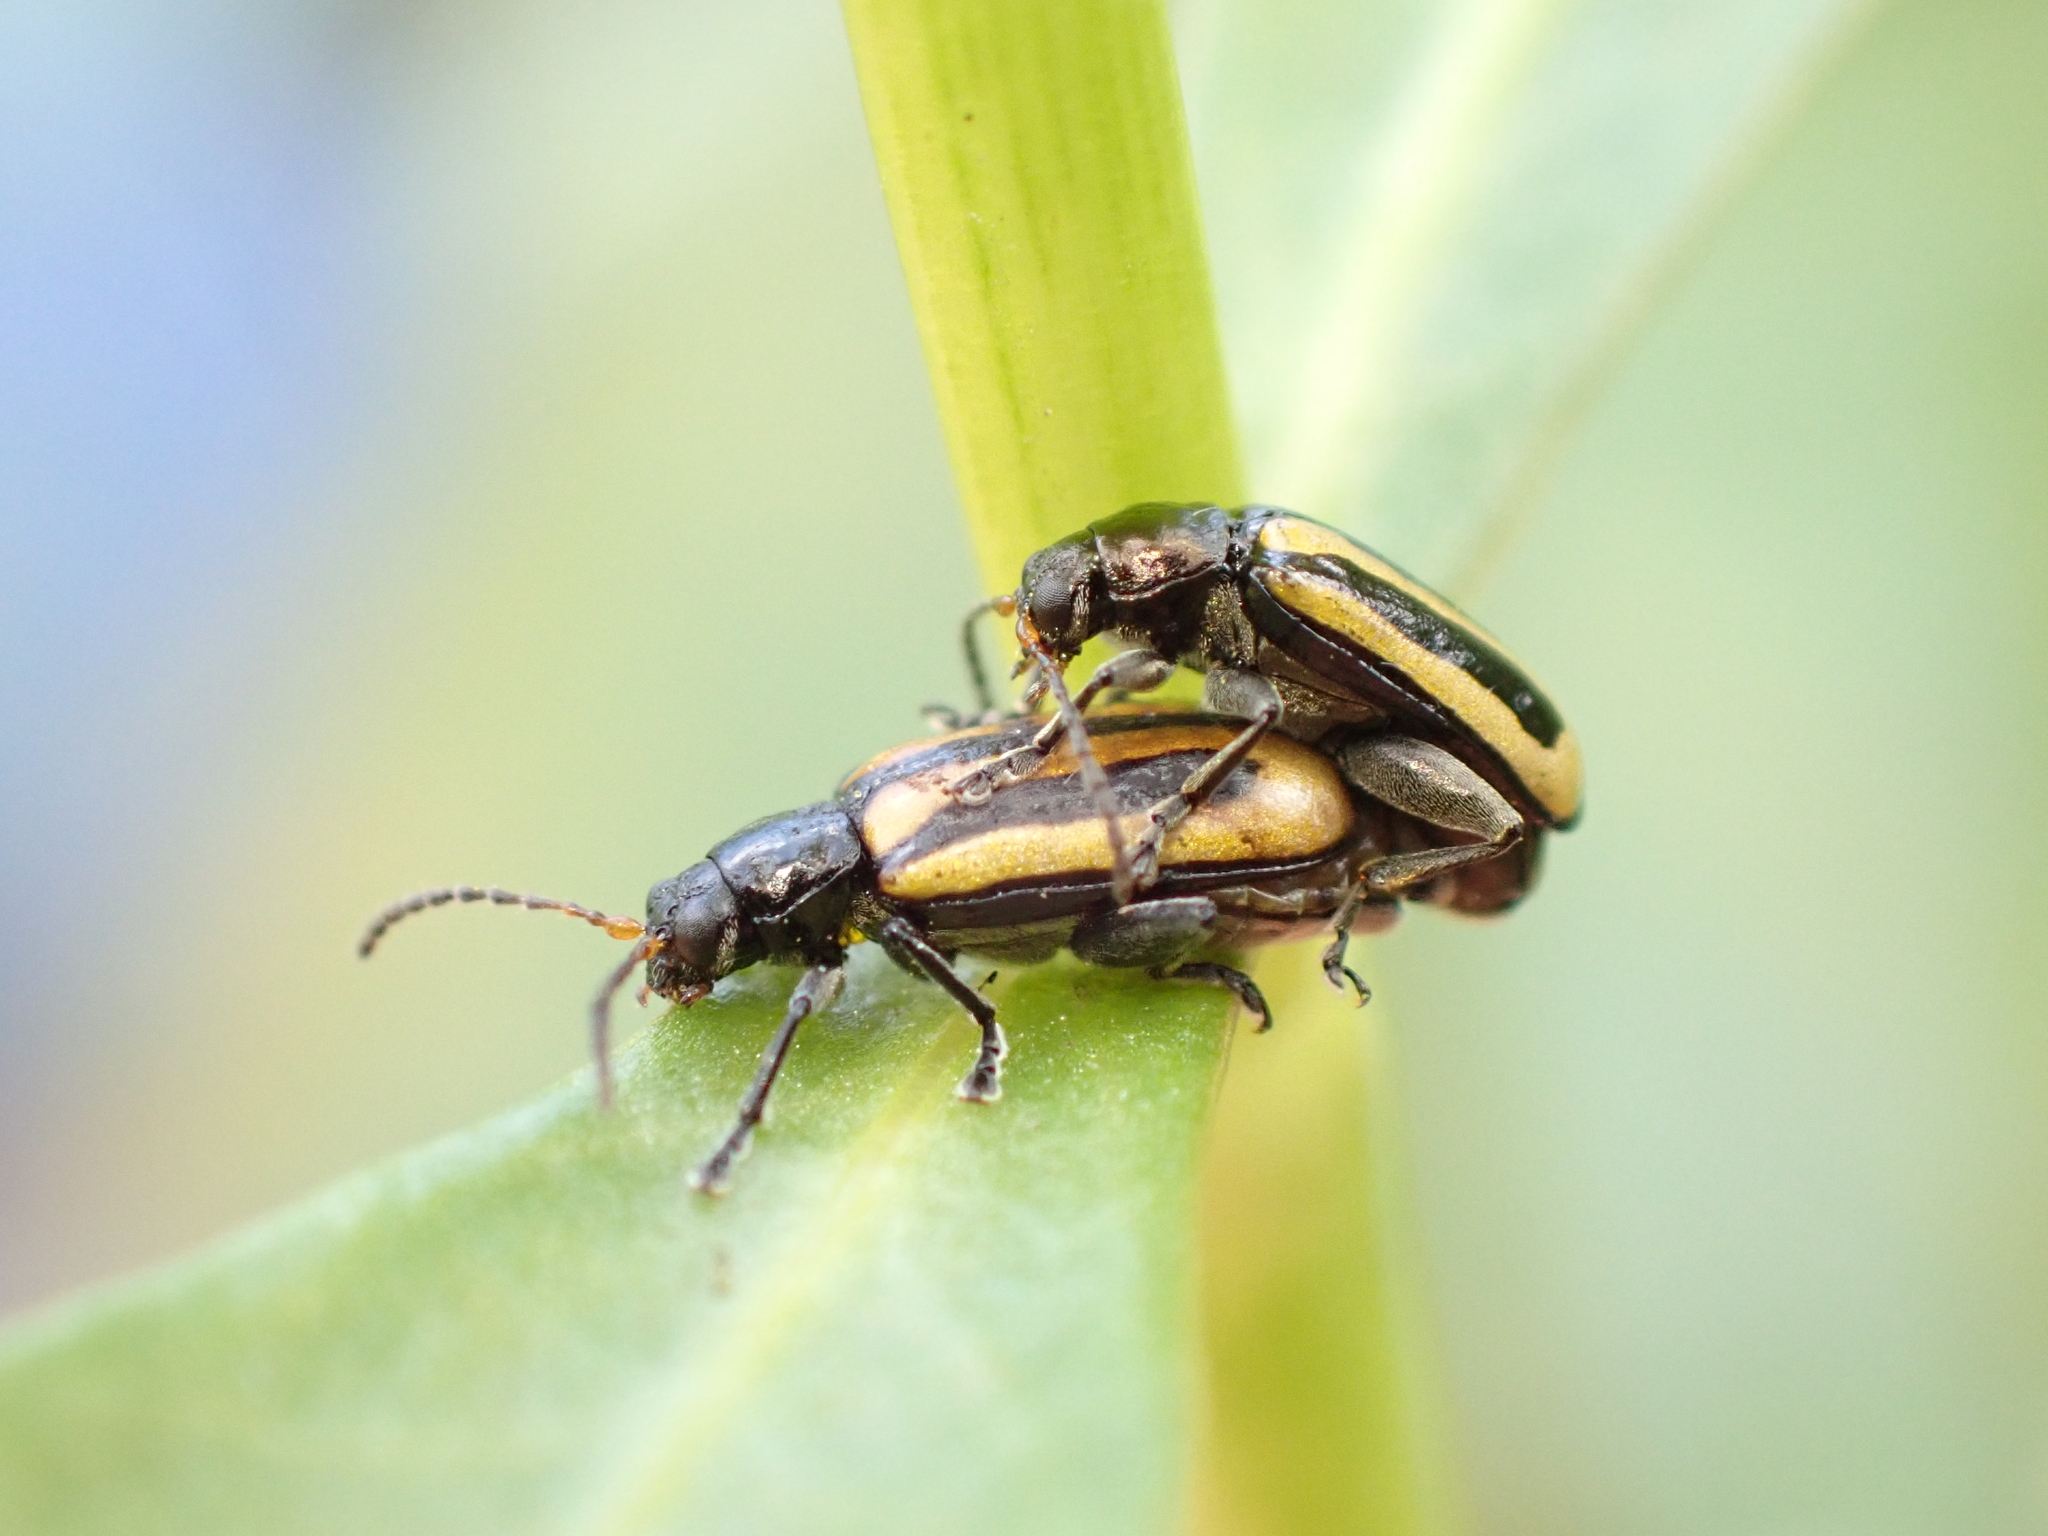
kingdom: Animalia
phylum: Arthropoda
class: Insecta
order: Coleoptera
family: Chrysomelidae
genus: Agasicles
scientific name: Agasicles hygrophila
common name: Alligatorweed flea beetle
